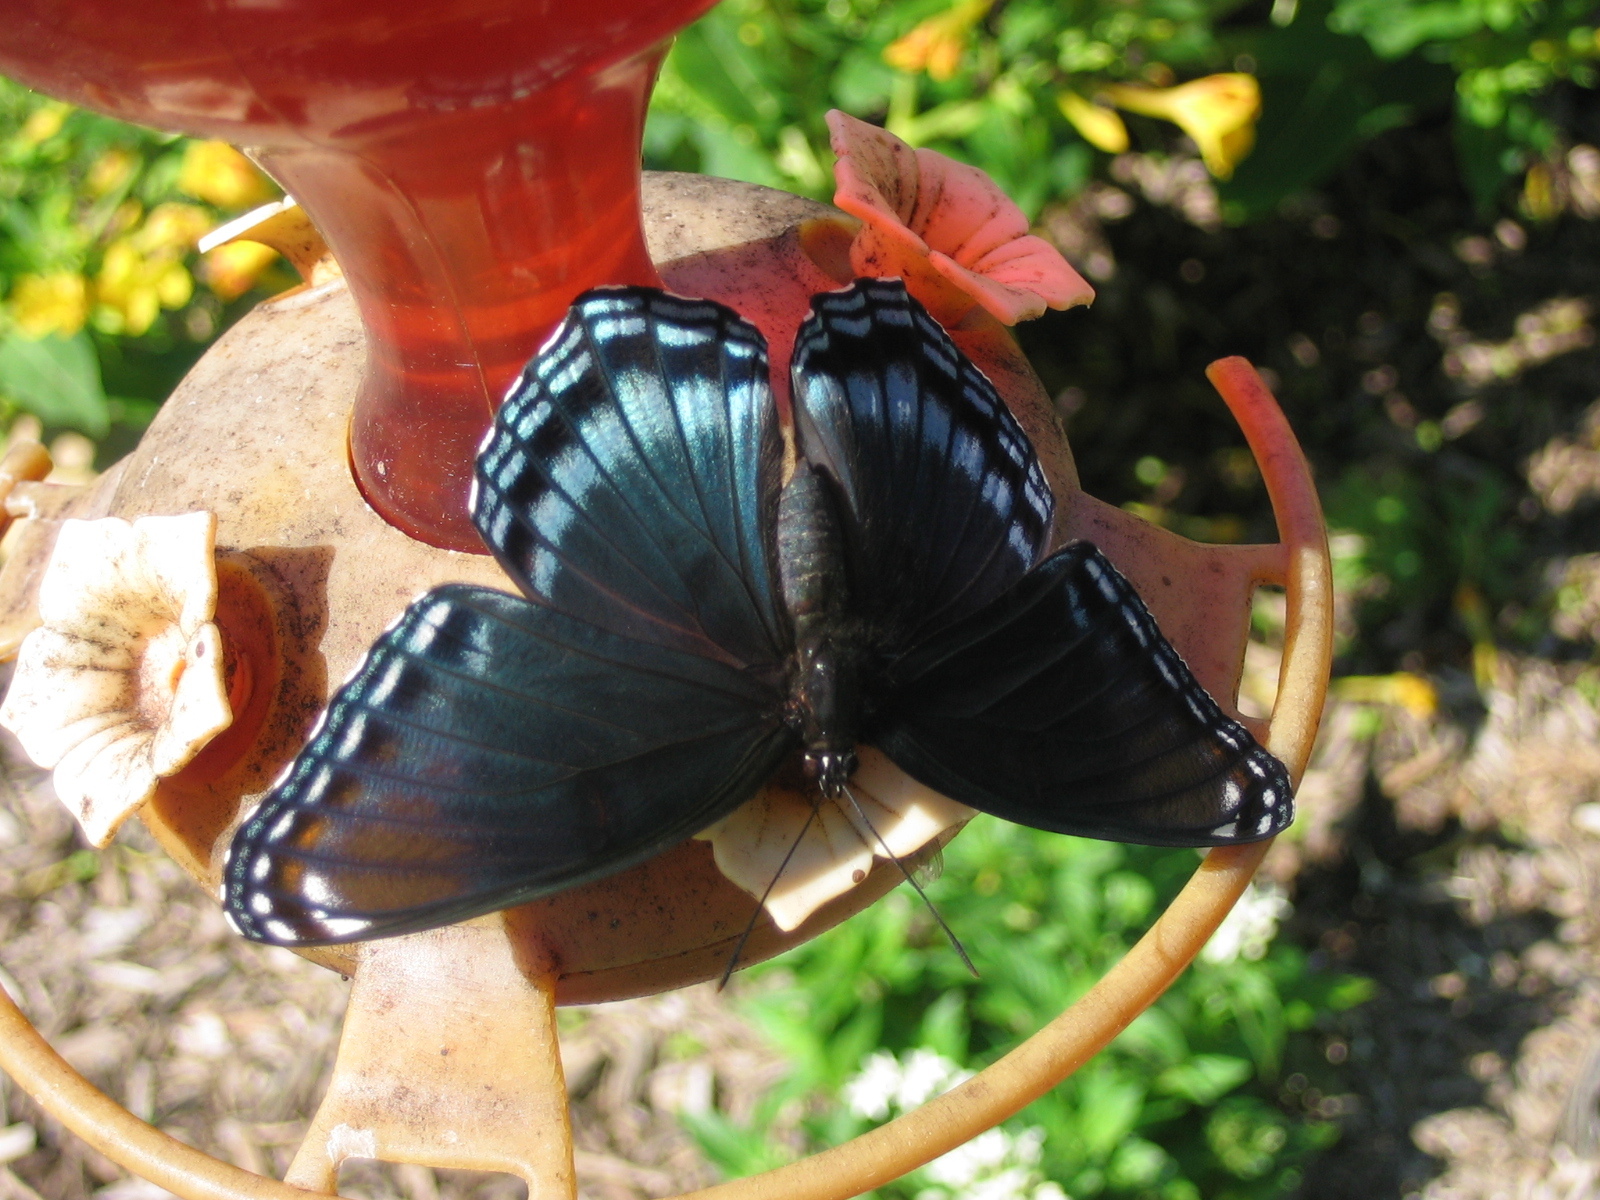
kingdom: Animalia
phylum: Arthropoda
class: Insecta
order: Lepidoptera
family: Nymphalidae
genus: Limenitis
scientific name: Limenitis arthemis
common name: Red-spotted admiral
